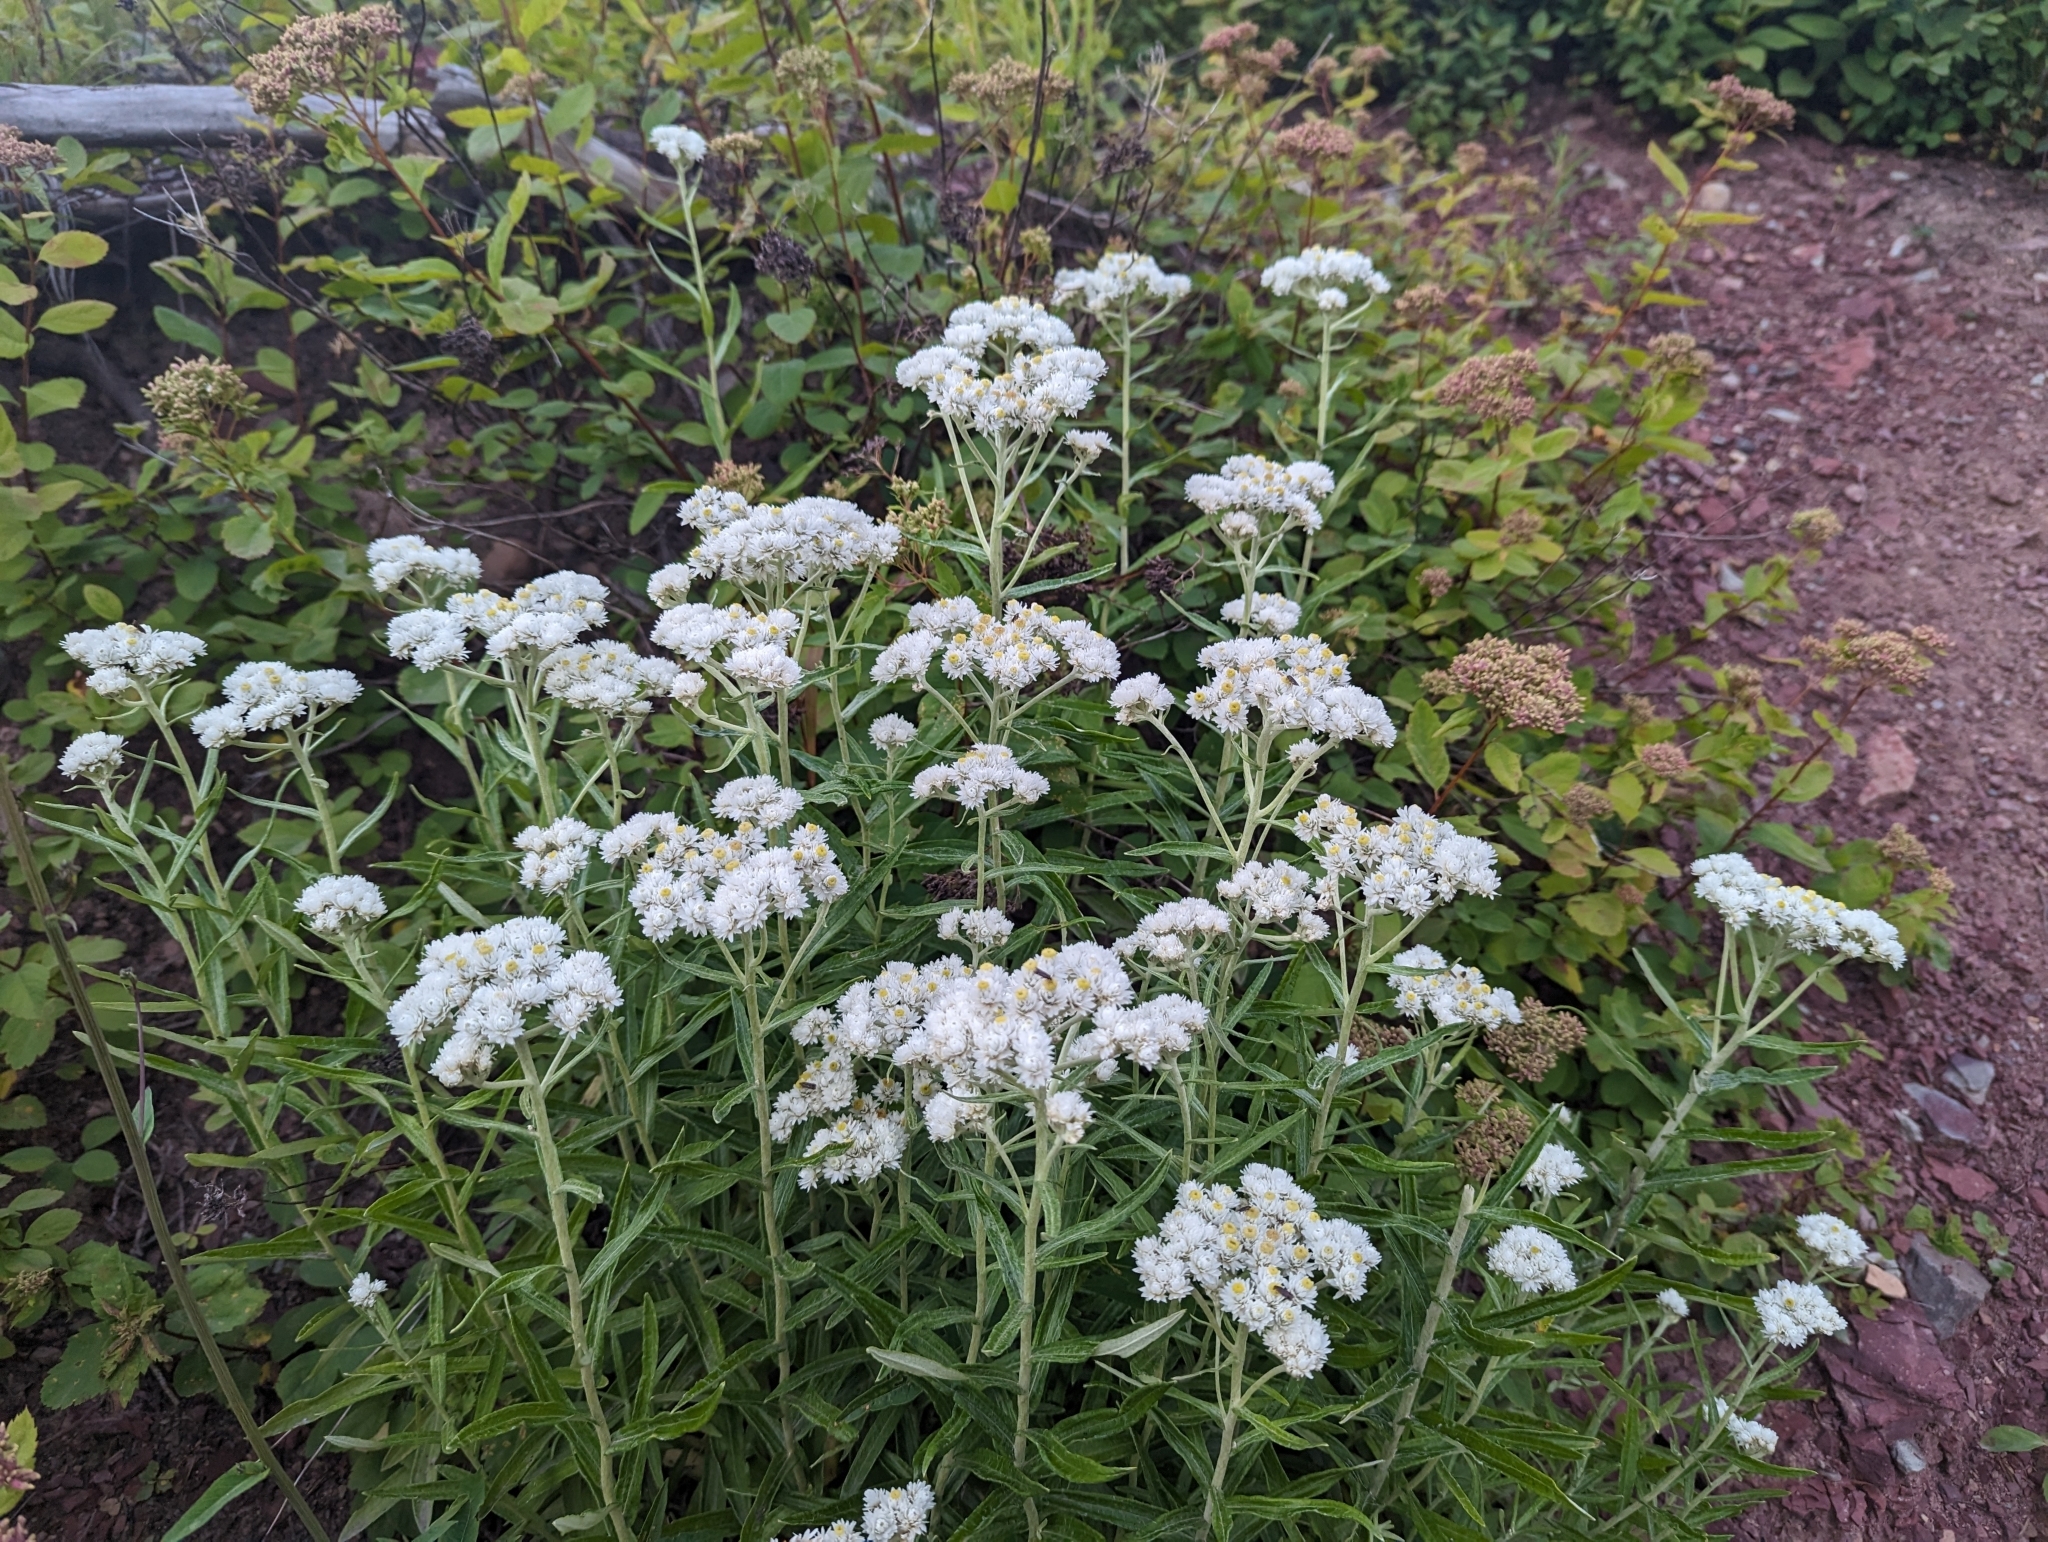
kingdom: Plantae
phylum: Tracheophyta
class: Magnoliopsida
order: Asterales
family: Asteraceae
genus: Anaphalis
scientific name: Anaphalis margaritacea
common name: Pearly everlasting
